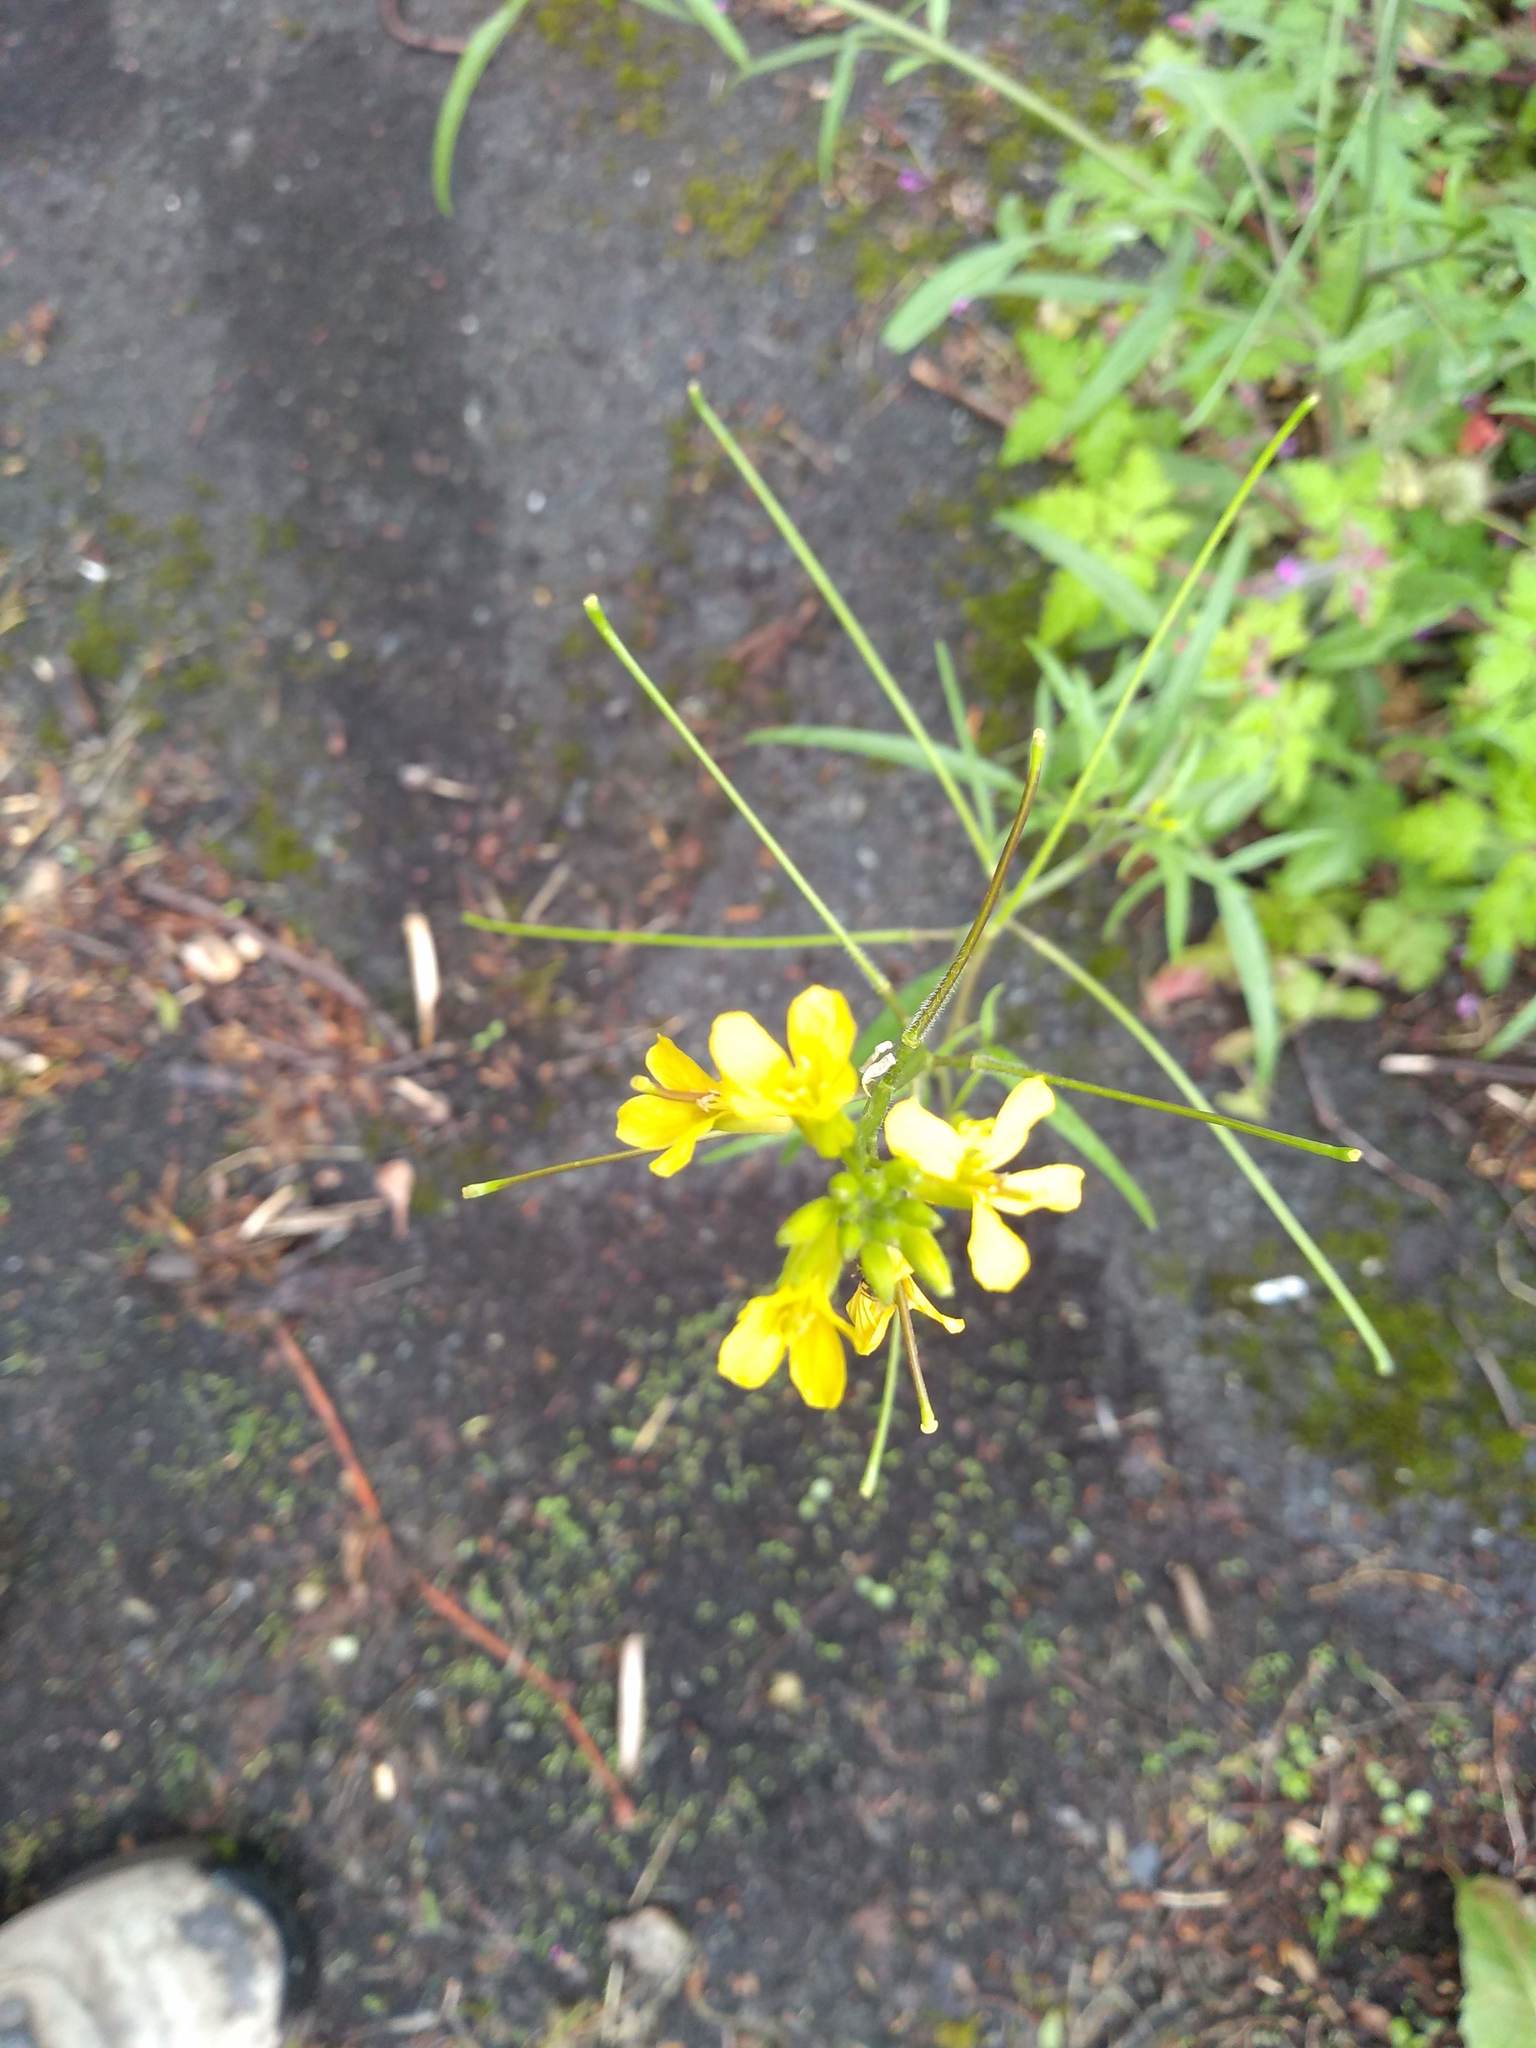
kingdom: Plantae
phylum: Tracheophyta
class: Magnoliopsida
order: Brassicales
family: Brassicaceae
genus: Sisymbrium
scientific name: Sisymbrium orientale
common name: Eastern rocket
